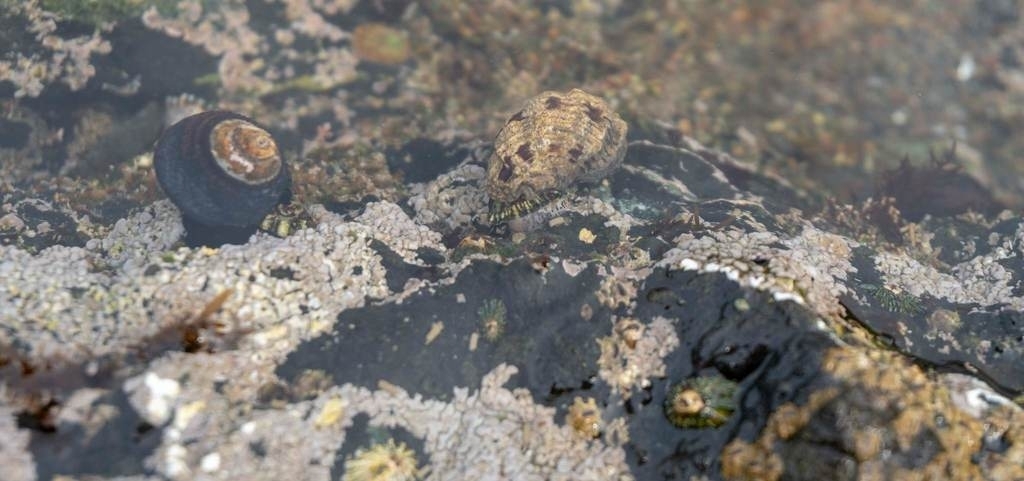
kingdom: Animalia
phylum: Mollusca
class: Gastropoda
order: Trochida
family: Tegulidae
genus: Tegula
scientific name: Tegula funebralis
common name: Black tegula
